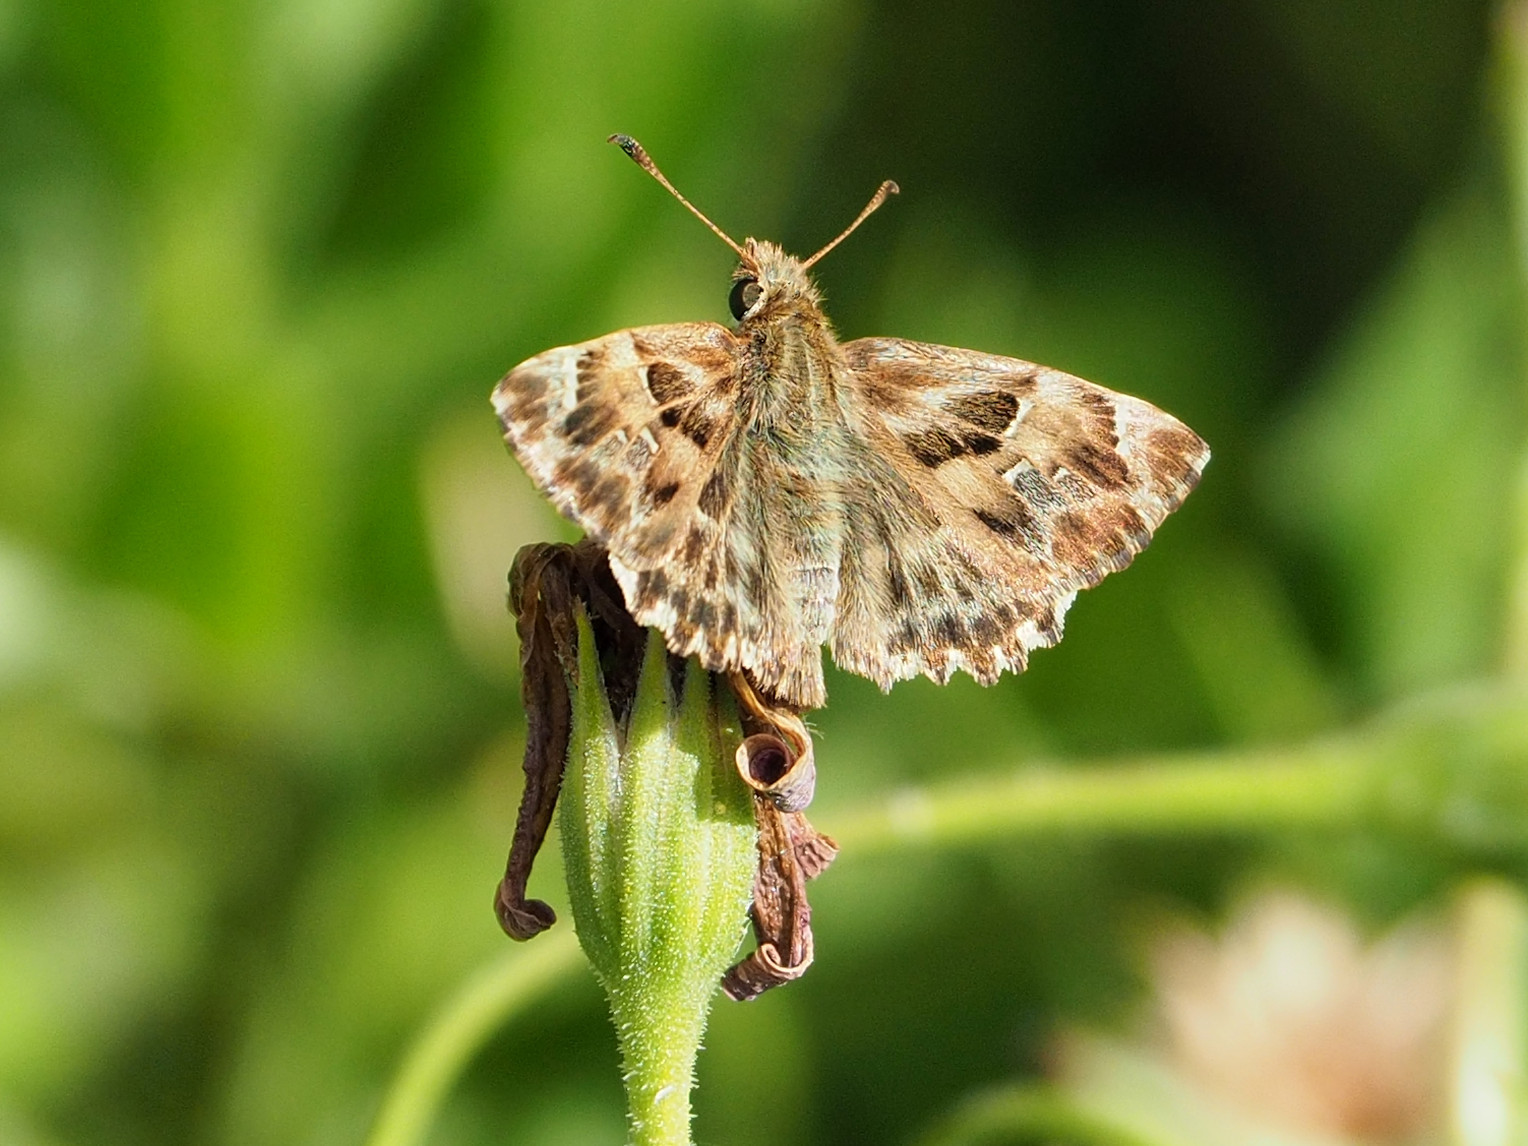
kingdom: Animalia
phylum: Arthropoda
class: Insecta
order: Lepidoptera
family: Hesperiidae
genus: Carcharodus
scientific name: Carcharodus alceae
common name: Mallow skipper
